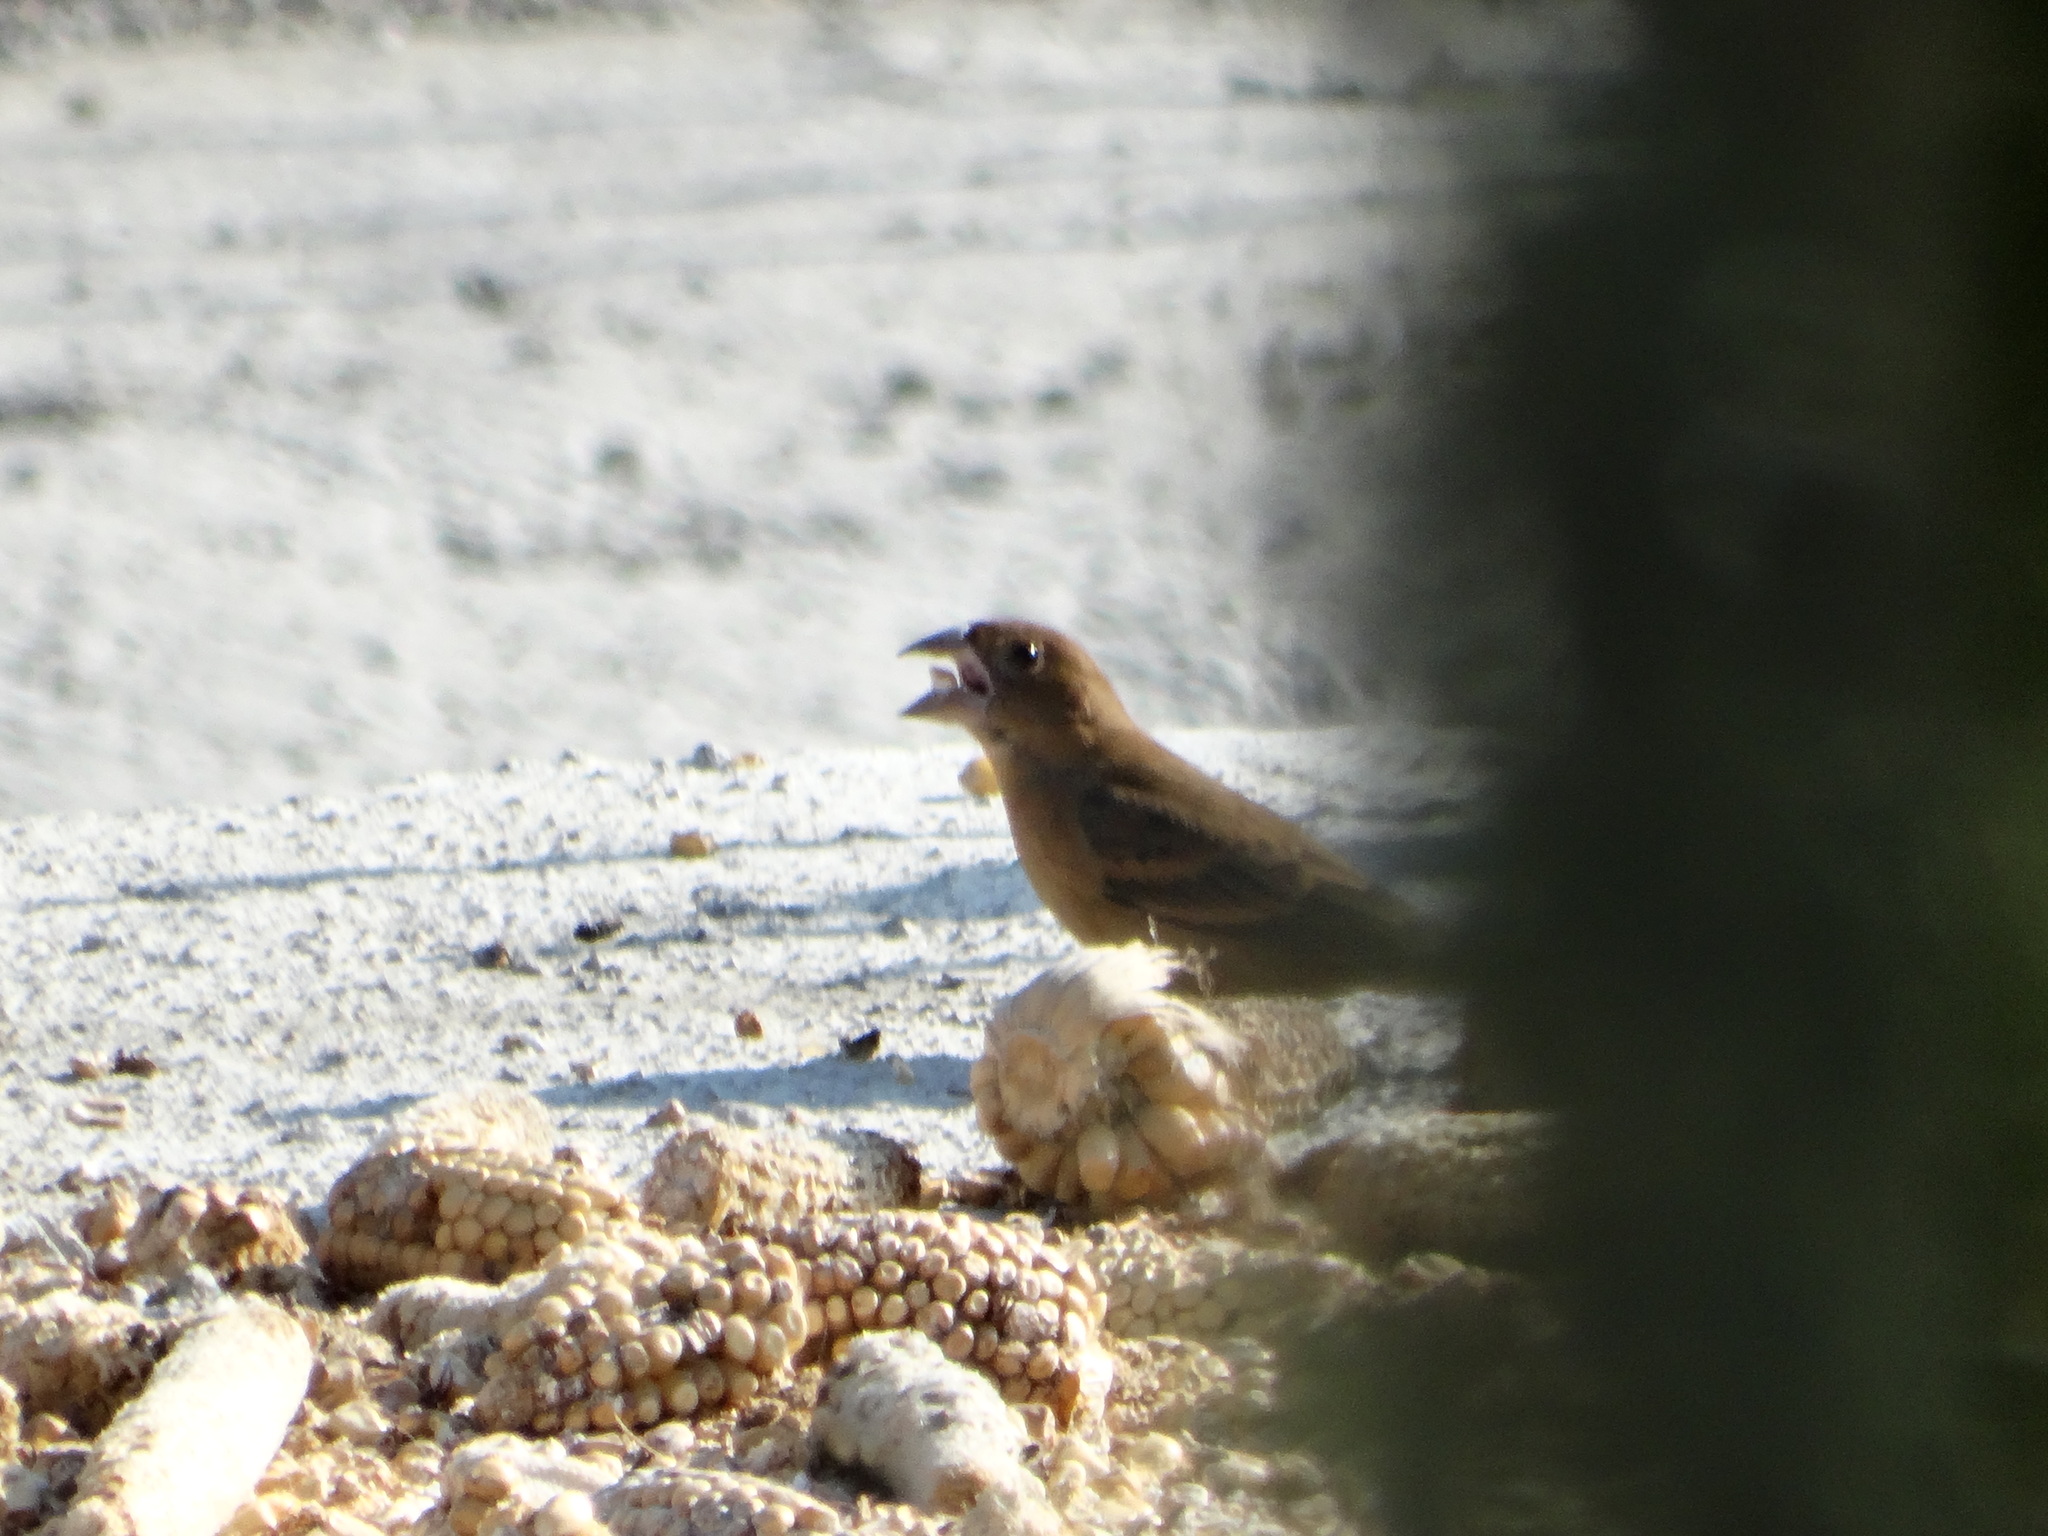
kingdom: Animalia
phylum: Chordata
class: Aves
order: Passeriformes
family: Cardinalidae
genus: Passerina
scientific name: Passerina caerulea
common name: Blue grosbeak
